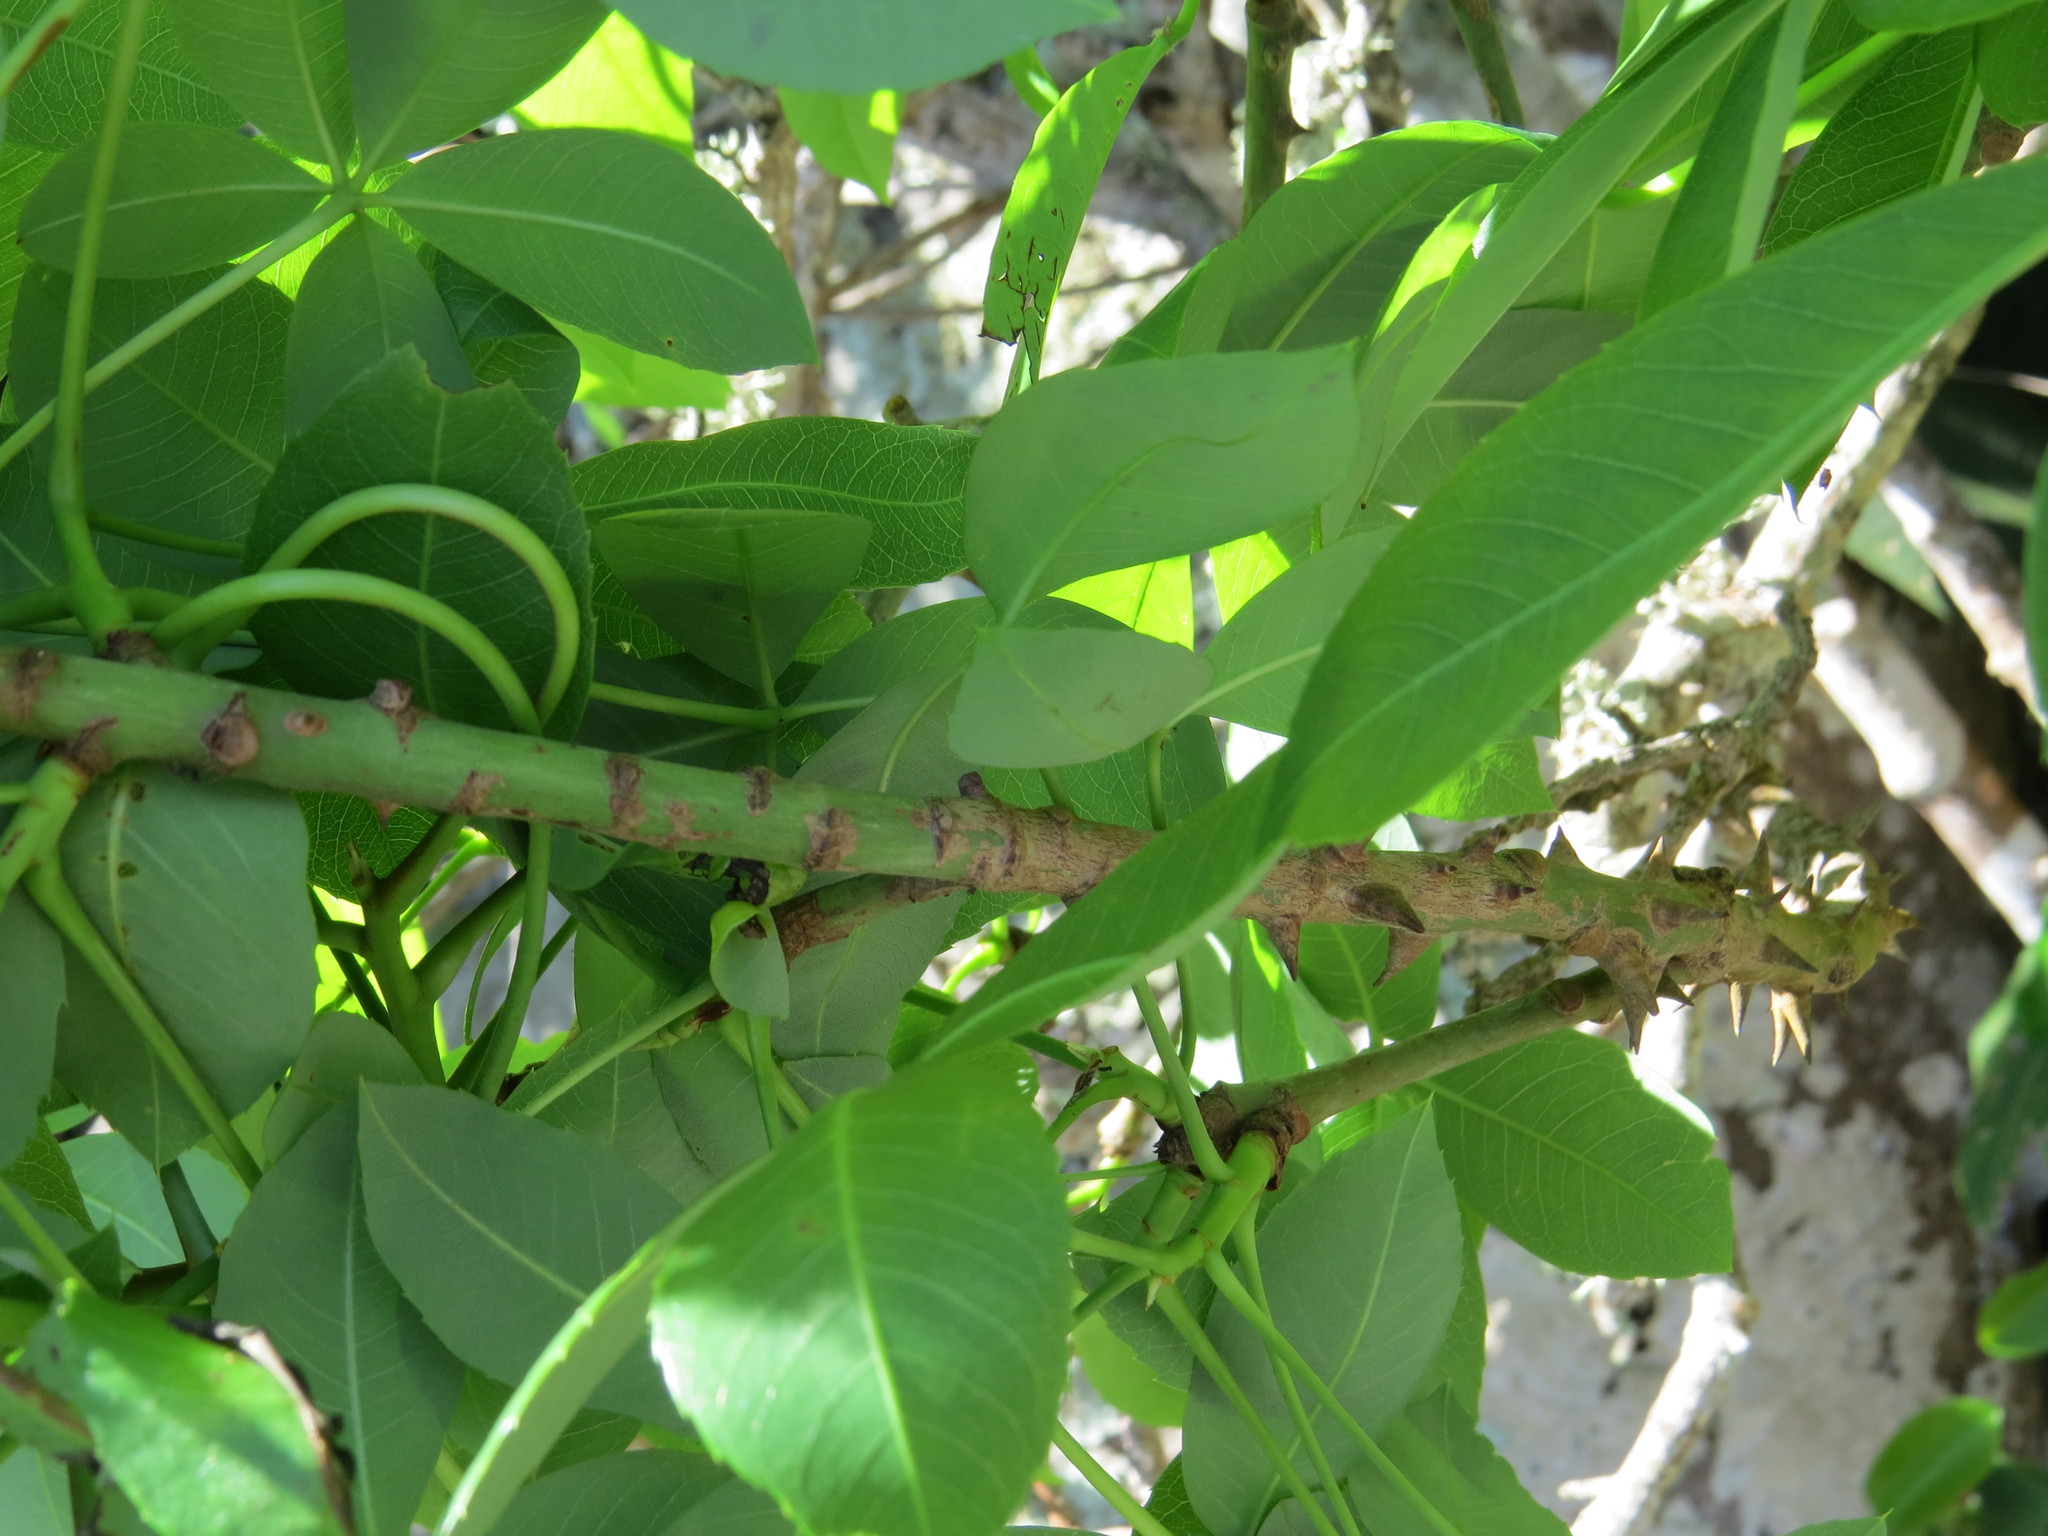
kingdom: Plantae
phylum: Tracheophyta
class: Magnoliopsida
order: Malvales
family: Malvaceae
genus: Ceiba
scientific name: Ceiba erianthos
